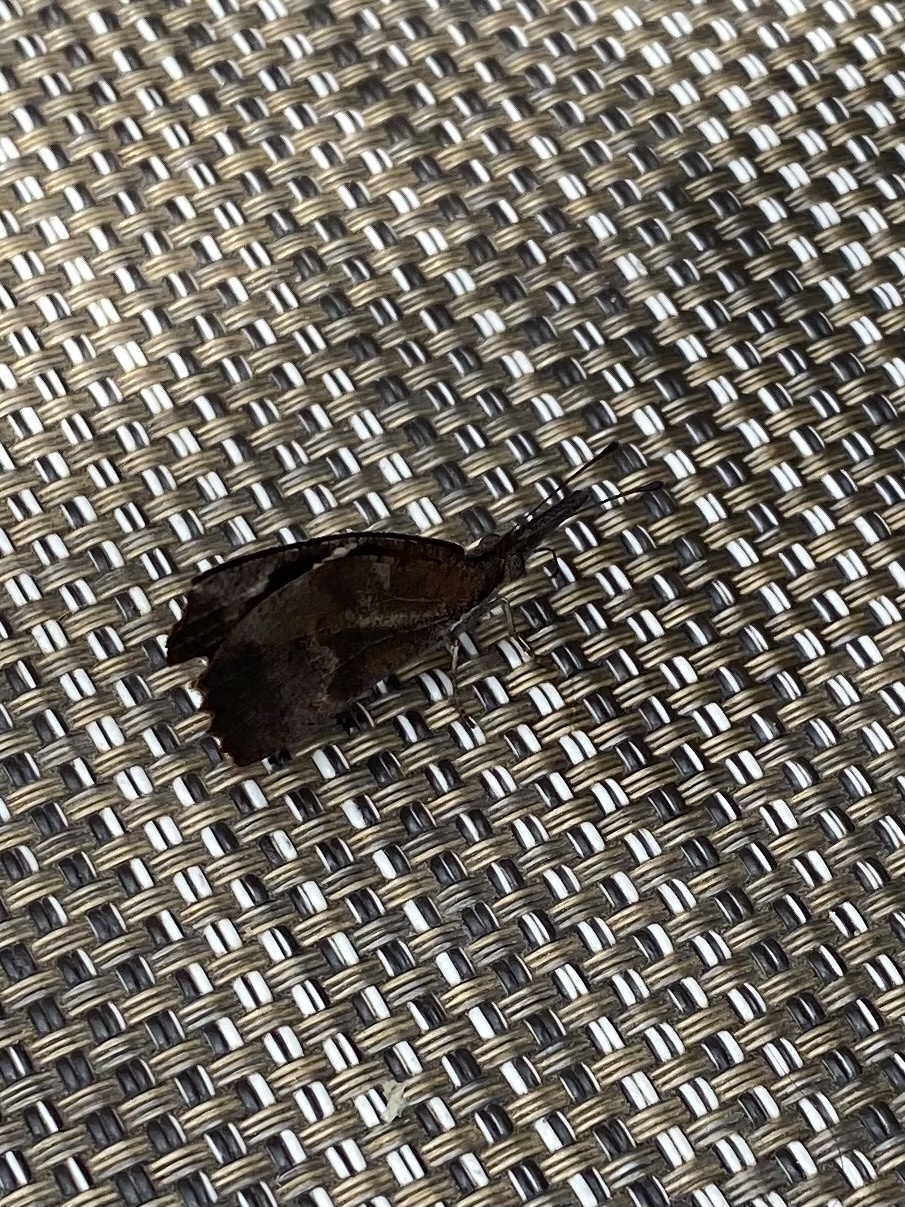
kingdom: Animalia
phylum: Arthropoda
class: Insecta
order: Lepidoptera
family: Nymphalidae
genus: Libytheana
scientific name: Libytheana carinenta
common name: American snout
